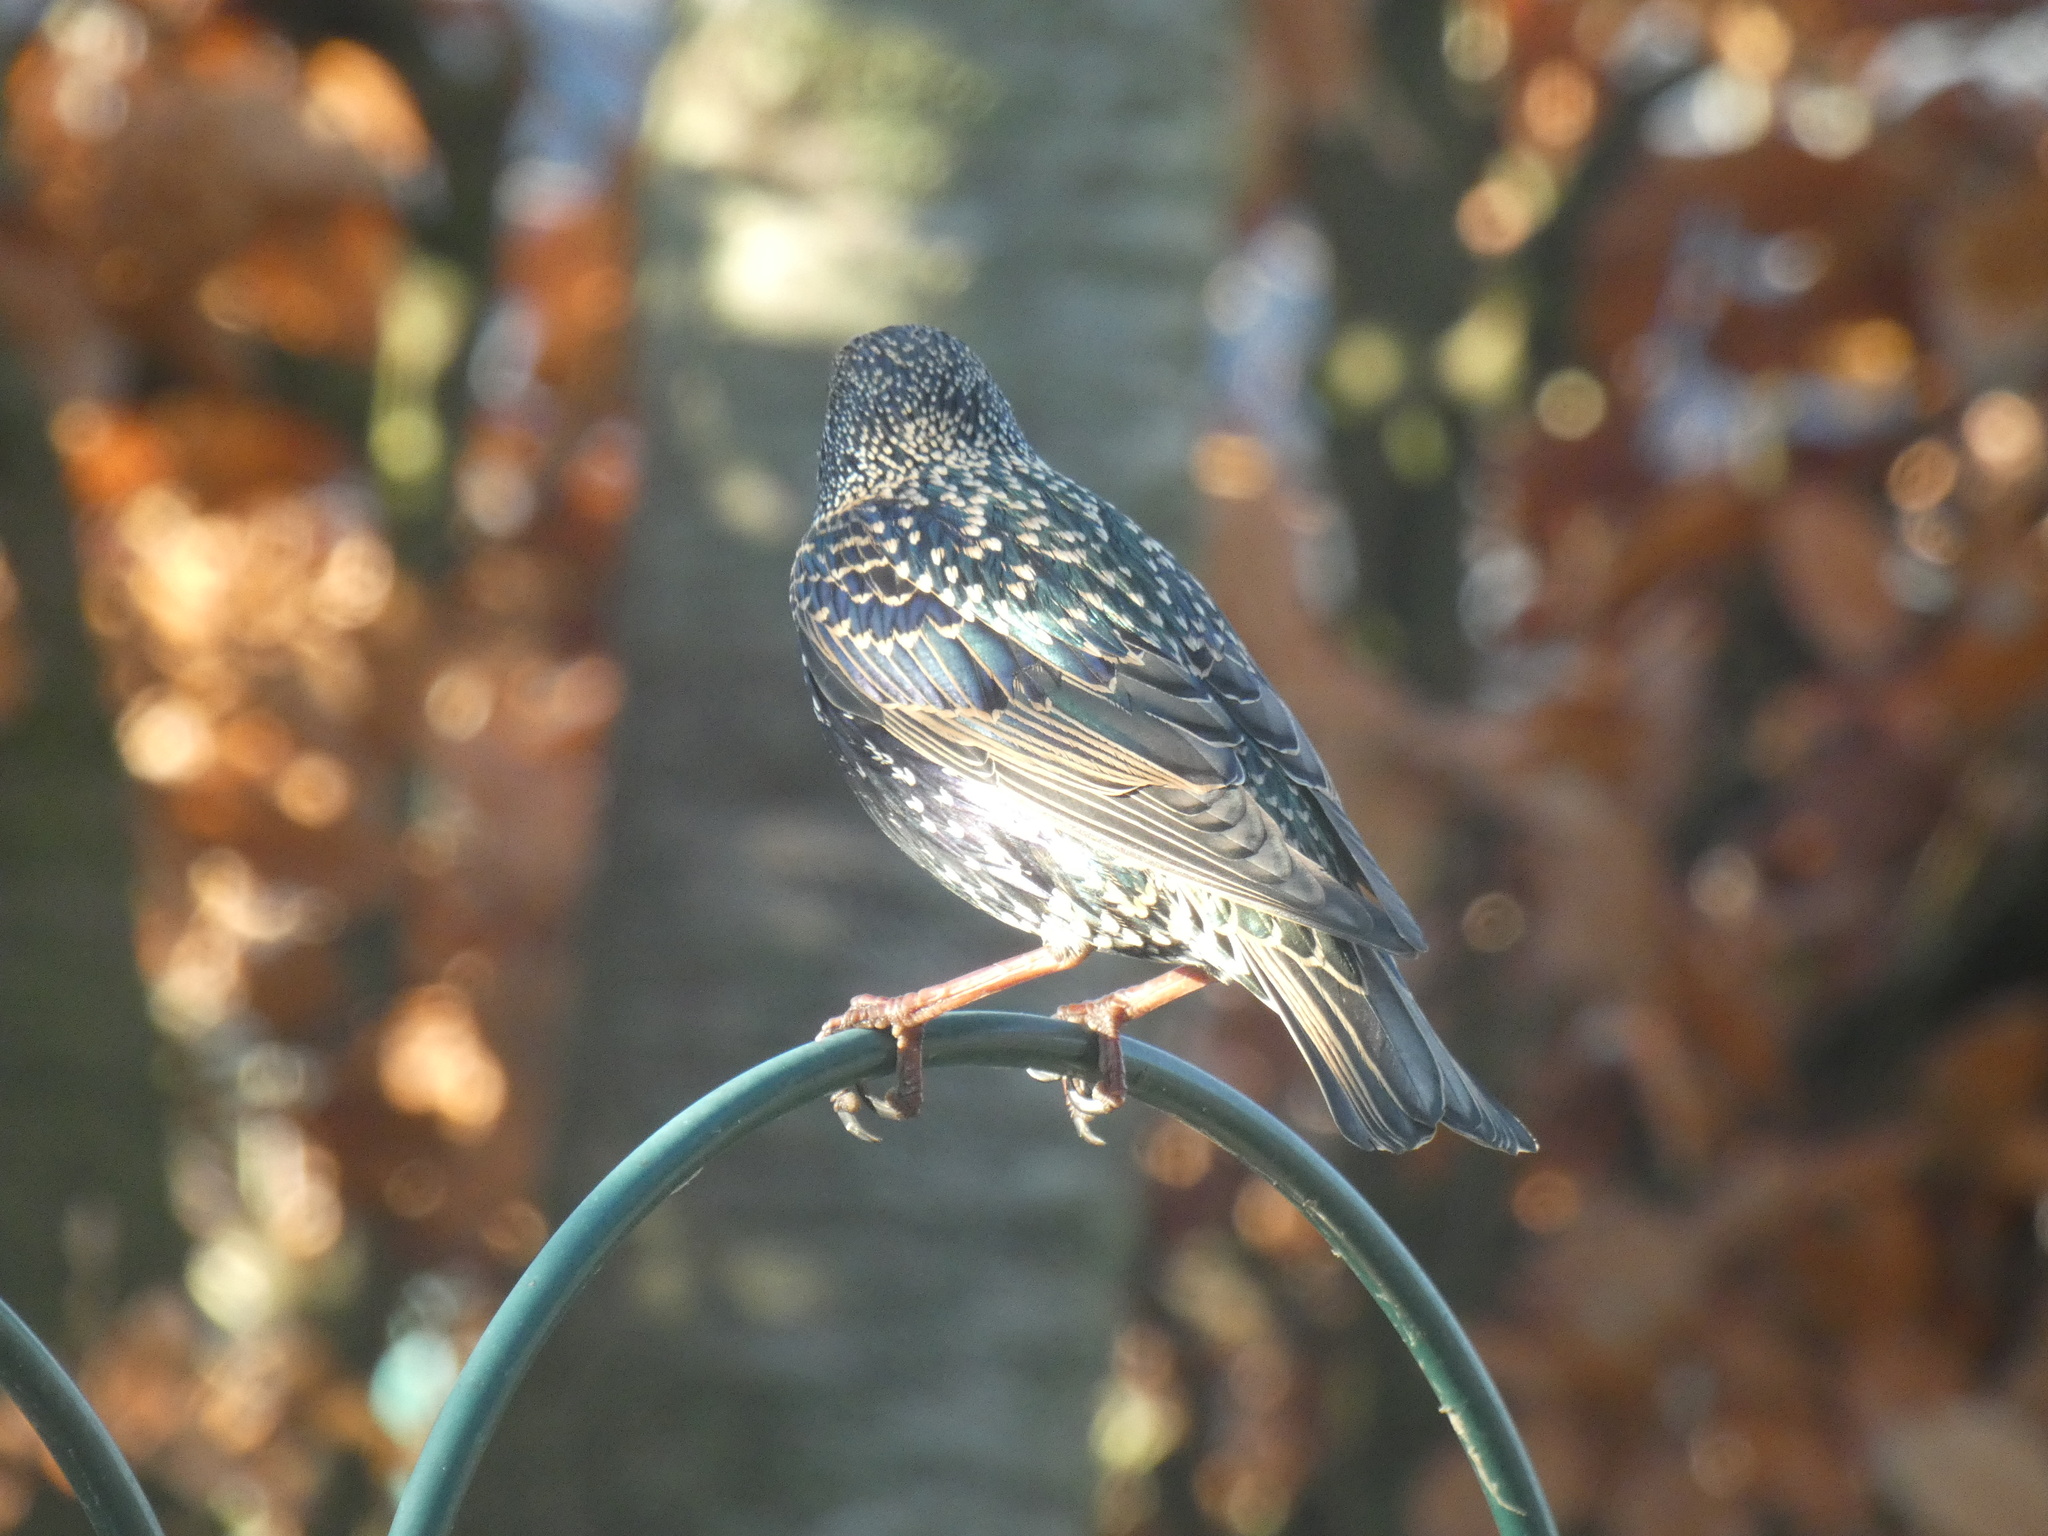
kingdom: Animalia
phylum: Chordata
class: Aves
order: Passeriformes
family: Sturnidae
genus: Sturnus
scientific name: Sturnus vulgaris
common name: Common starling
